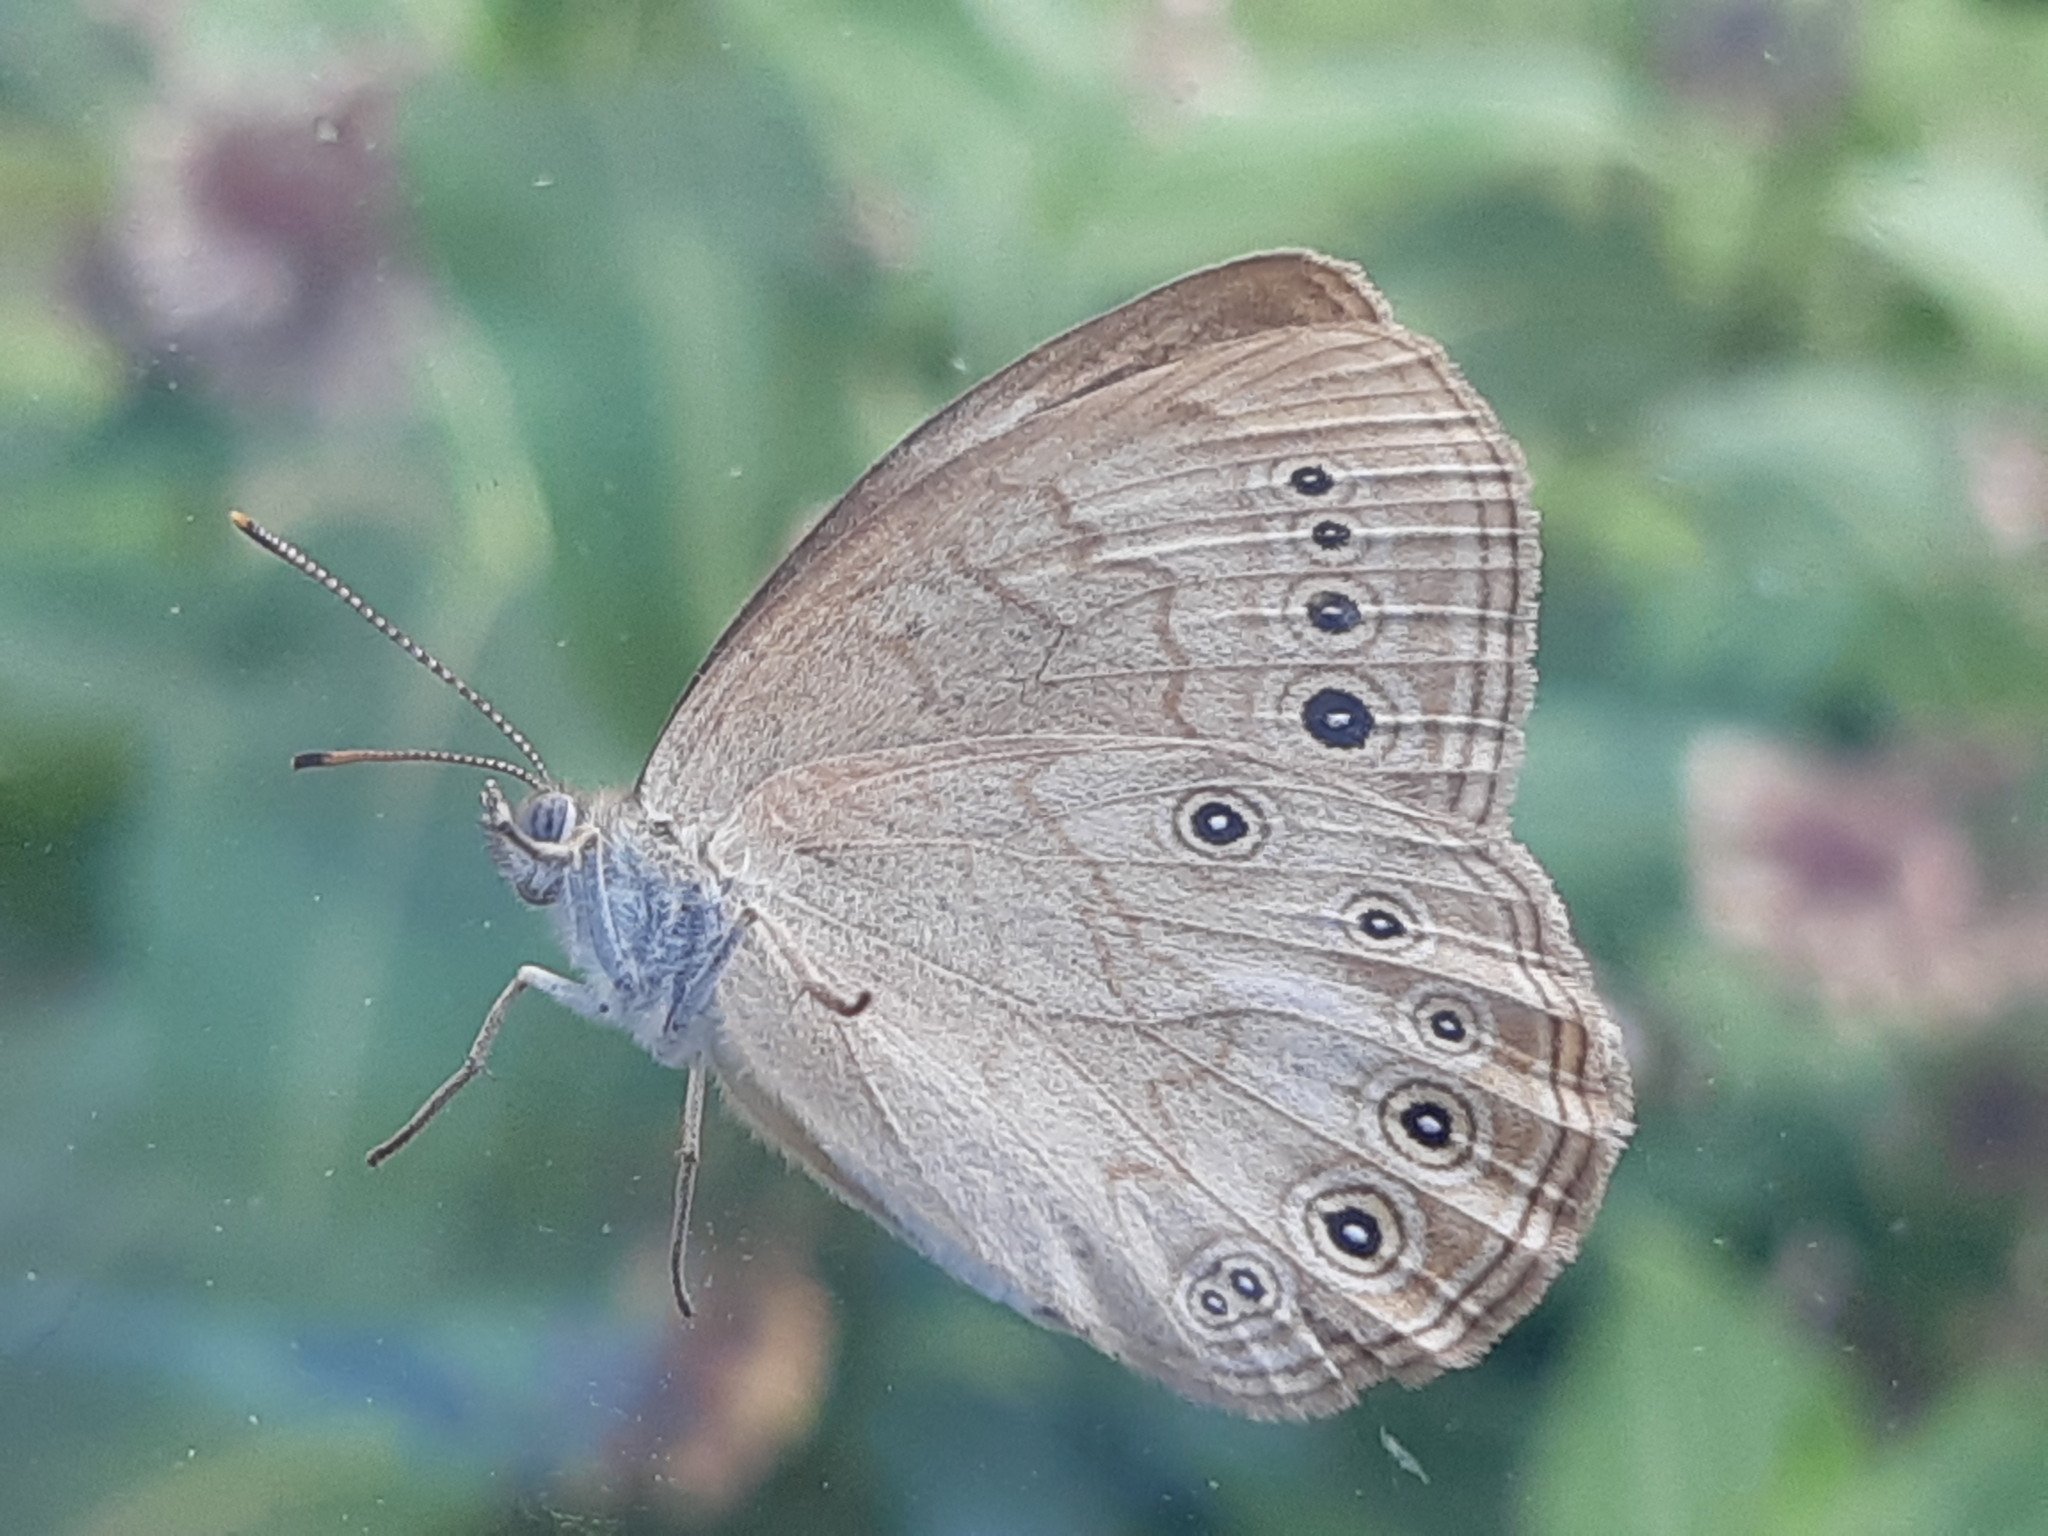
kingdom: Animalia
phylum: Arthropoda
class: Insecta
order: Lepidoptera
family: Nymphalidae
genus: Lethe
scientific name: Lethe eurydice
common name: Eyed brown
